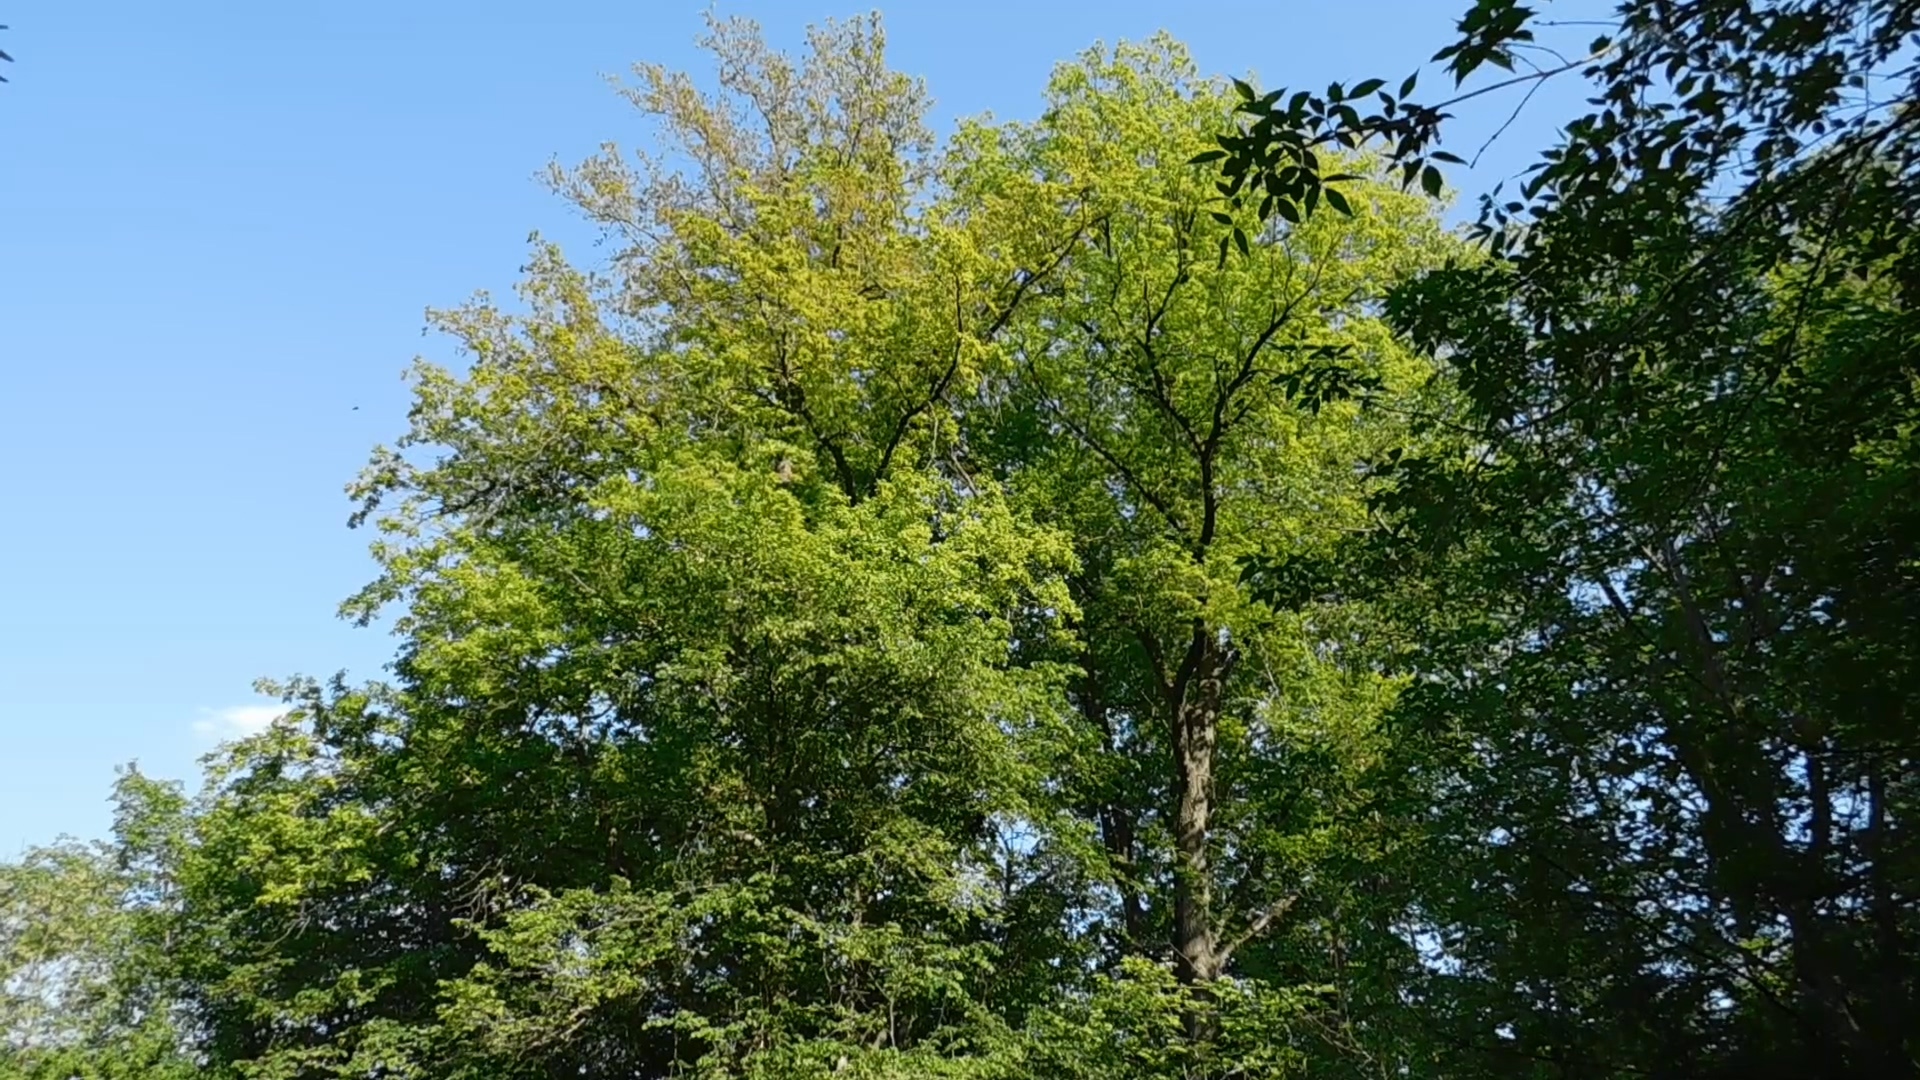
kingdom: Animalia
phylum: Chordata
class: Aves
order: Passeriformes
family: Oriolidae
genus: Oriolus
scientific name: Oriolus oriolus
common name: Eurasian golden oriole
